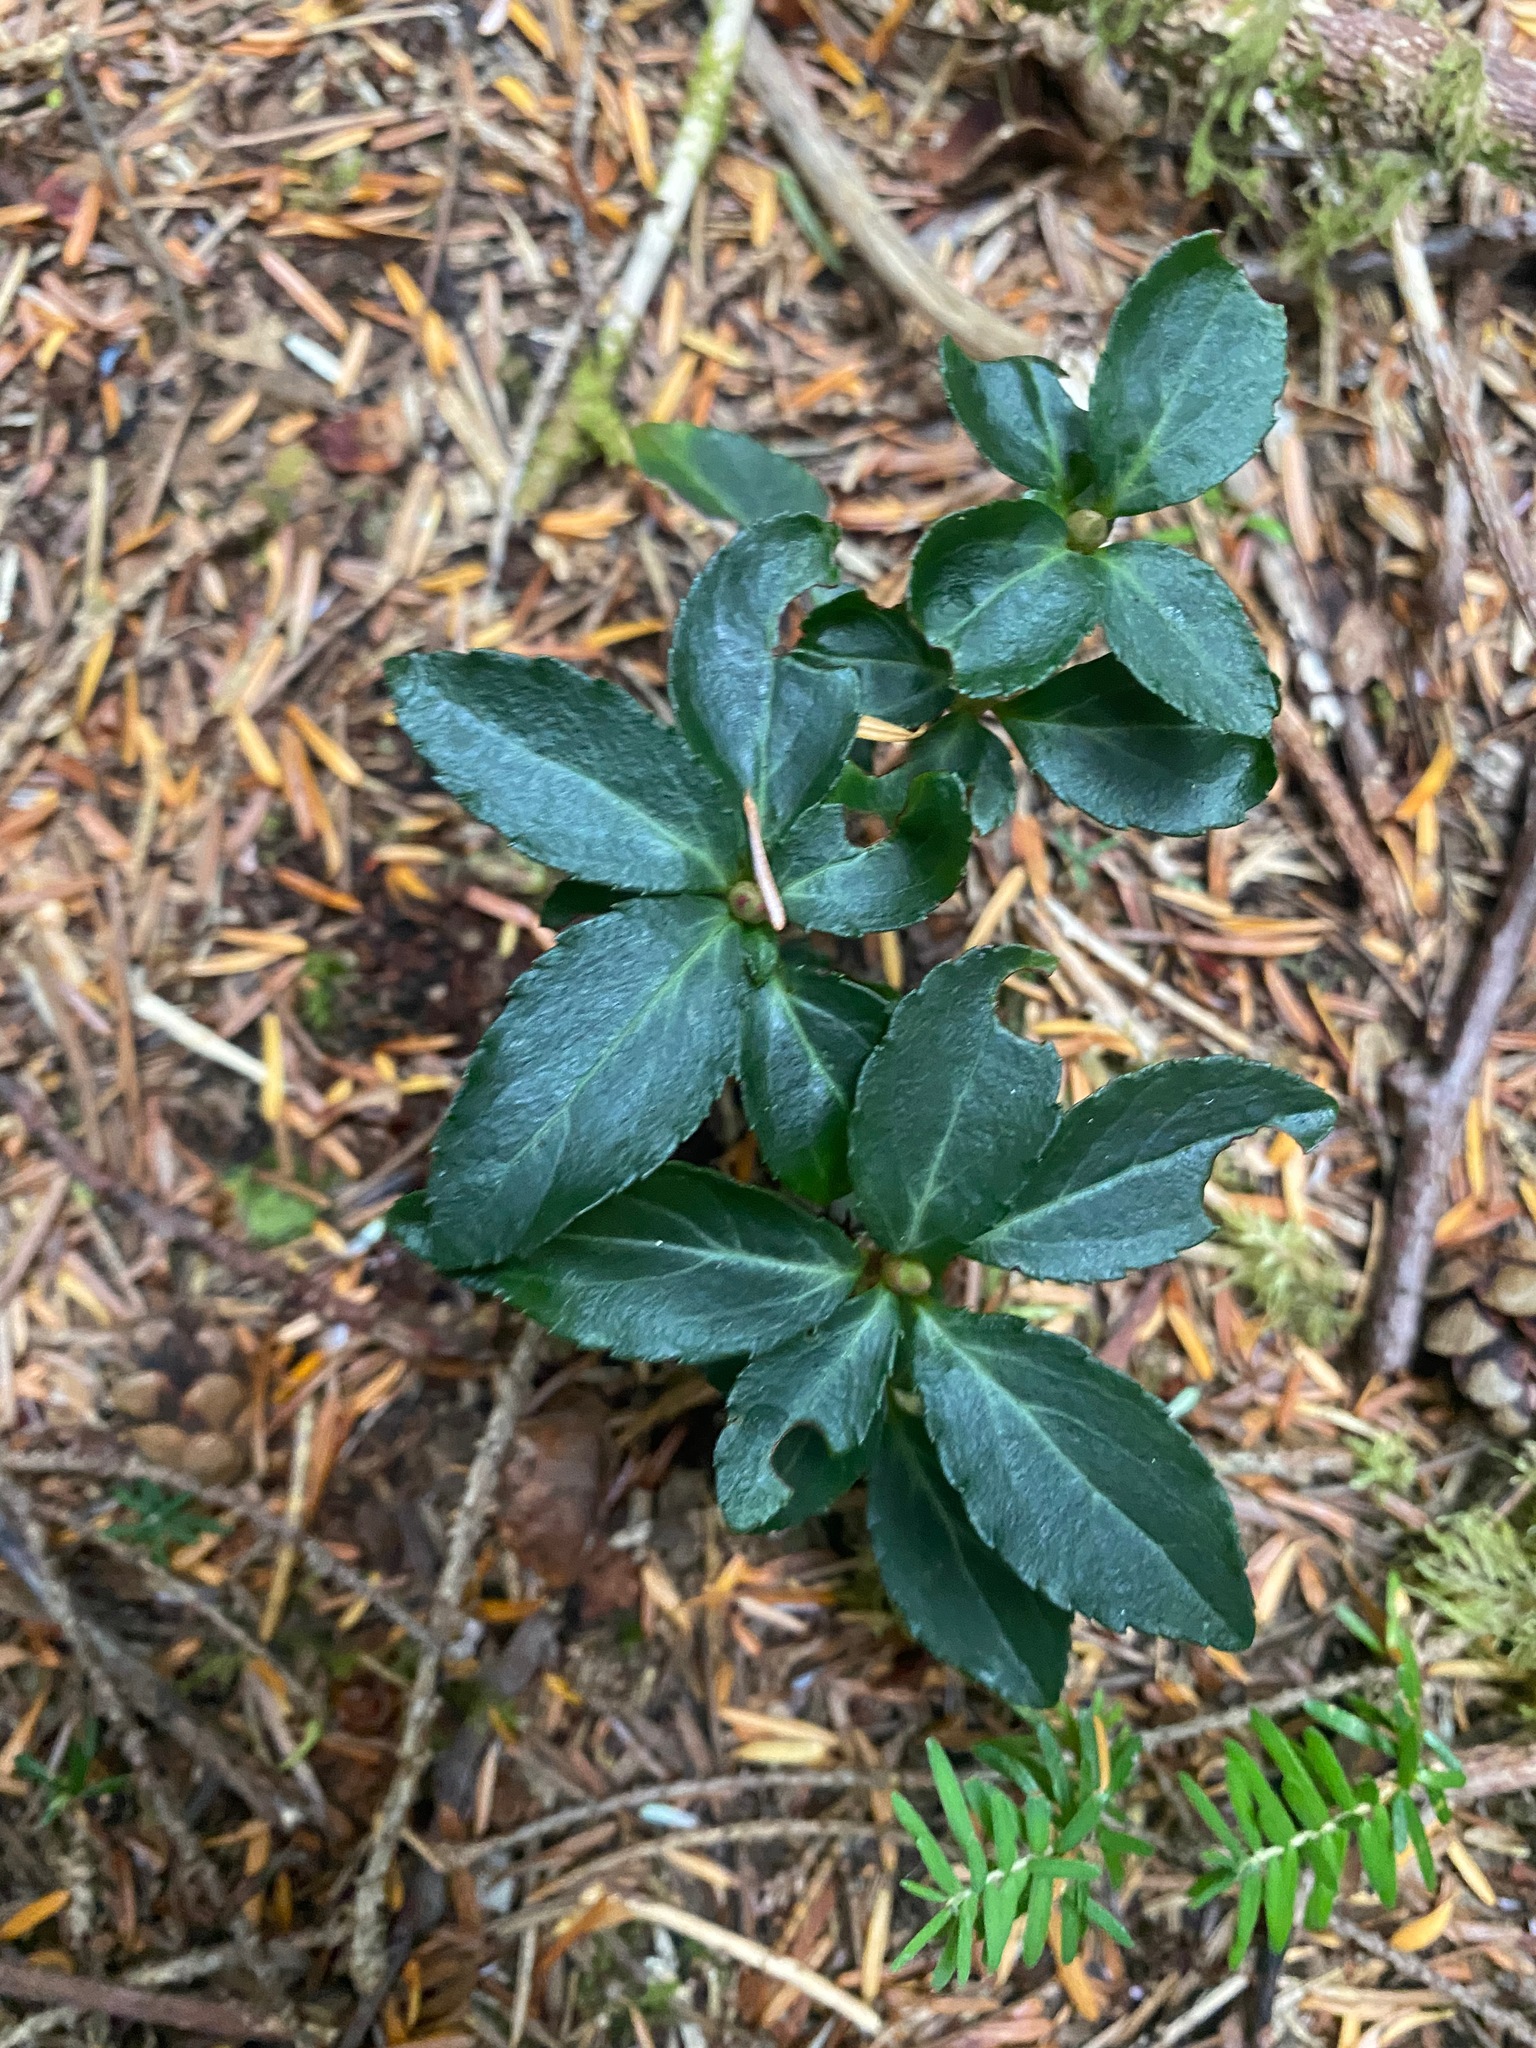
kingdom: Plantae
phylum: Tracheophyta
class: Magnoliopsida
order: Ericales
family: Ericaceae
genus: Chimaphila
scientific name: Chimaphila menziesii
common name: Menzies' pipsissewa
